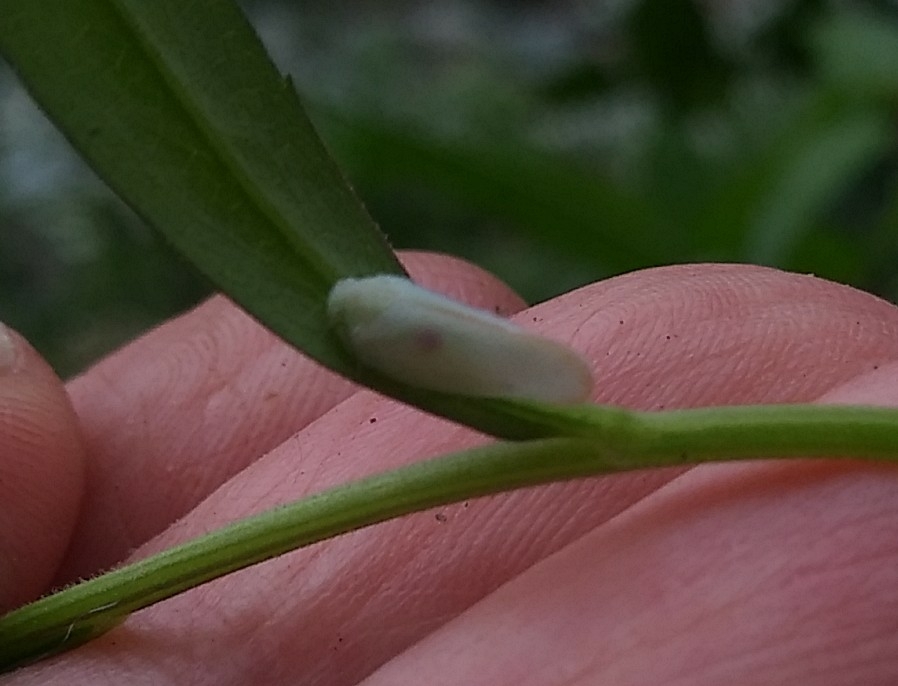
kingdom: Animalia
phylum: Arthropoda
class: Insecta
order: Hemiptera
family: Flatidae
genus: Ormenoides
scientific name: Ormenoides venusta
